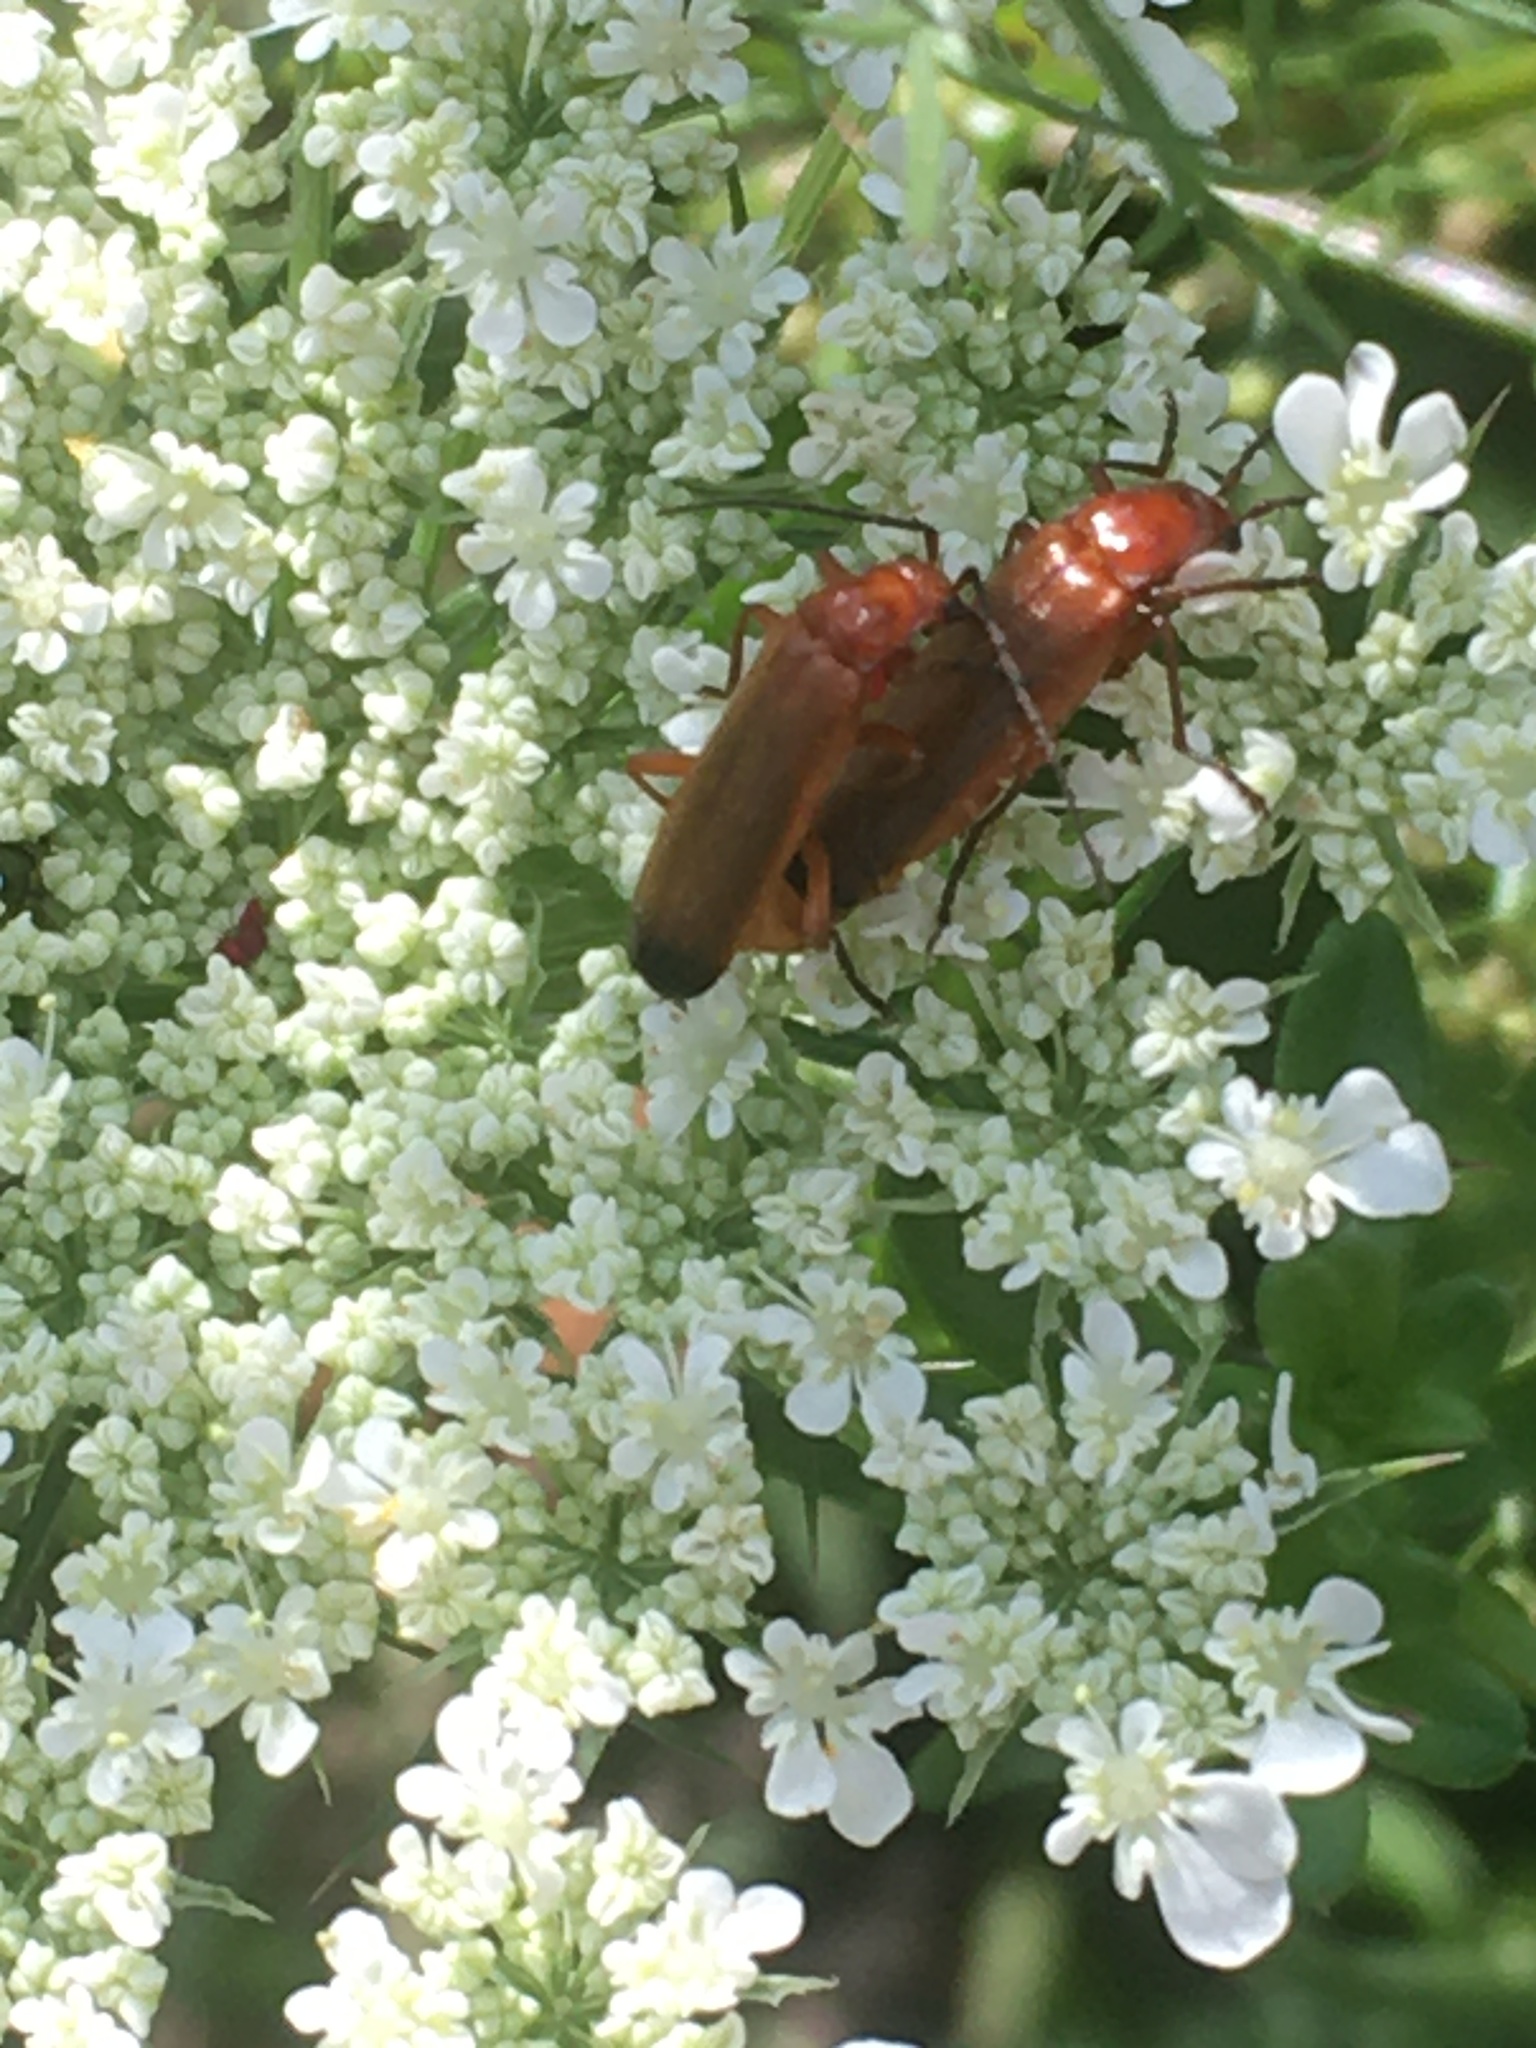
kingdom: Animalia
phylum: Arthropoda
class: Insecta
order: Coleoptera
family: Cantharidae
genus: Rhagonycha
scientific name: Rhagonycha fulva
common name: Common red soldier beetle
